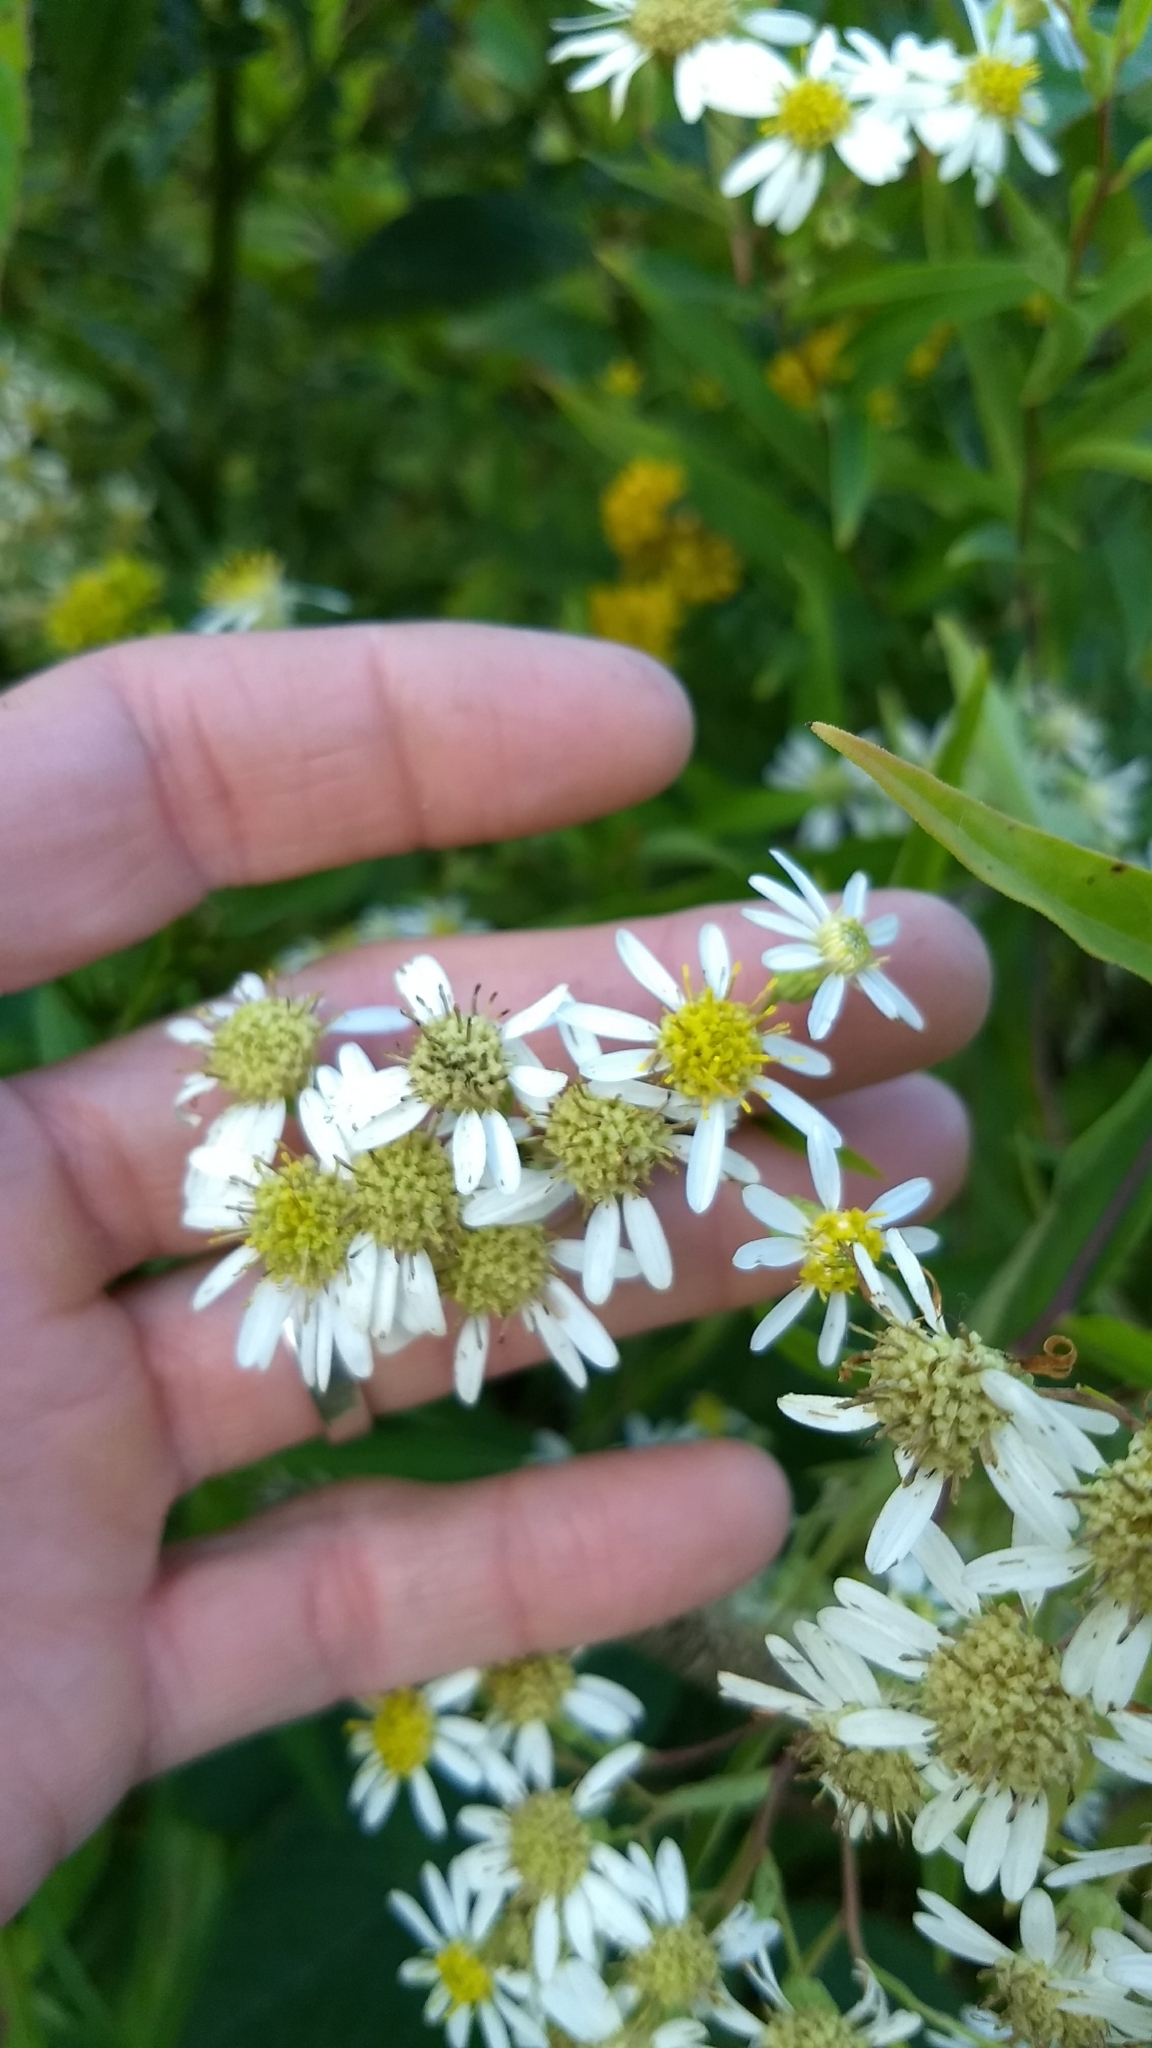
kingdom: Plantae
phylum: Tracheophyta
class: Magnoliopsida
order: Asterales
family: Asteraceae
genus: Doellingeria
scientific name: Doellingeria umbellata
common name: Flat-top white aster
